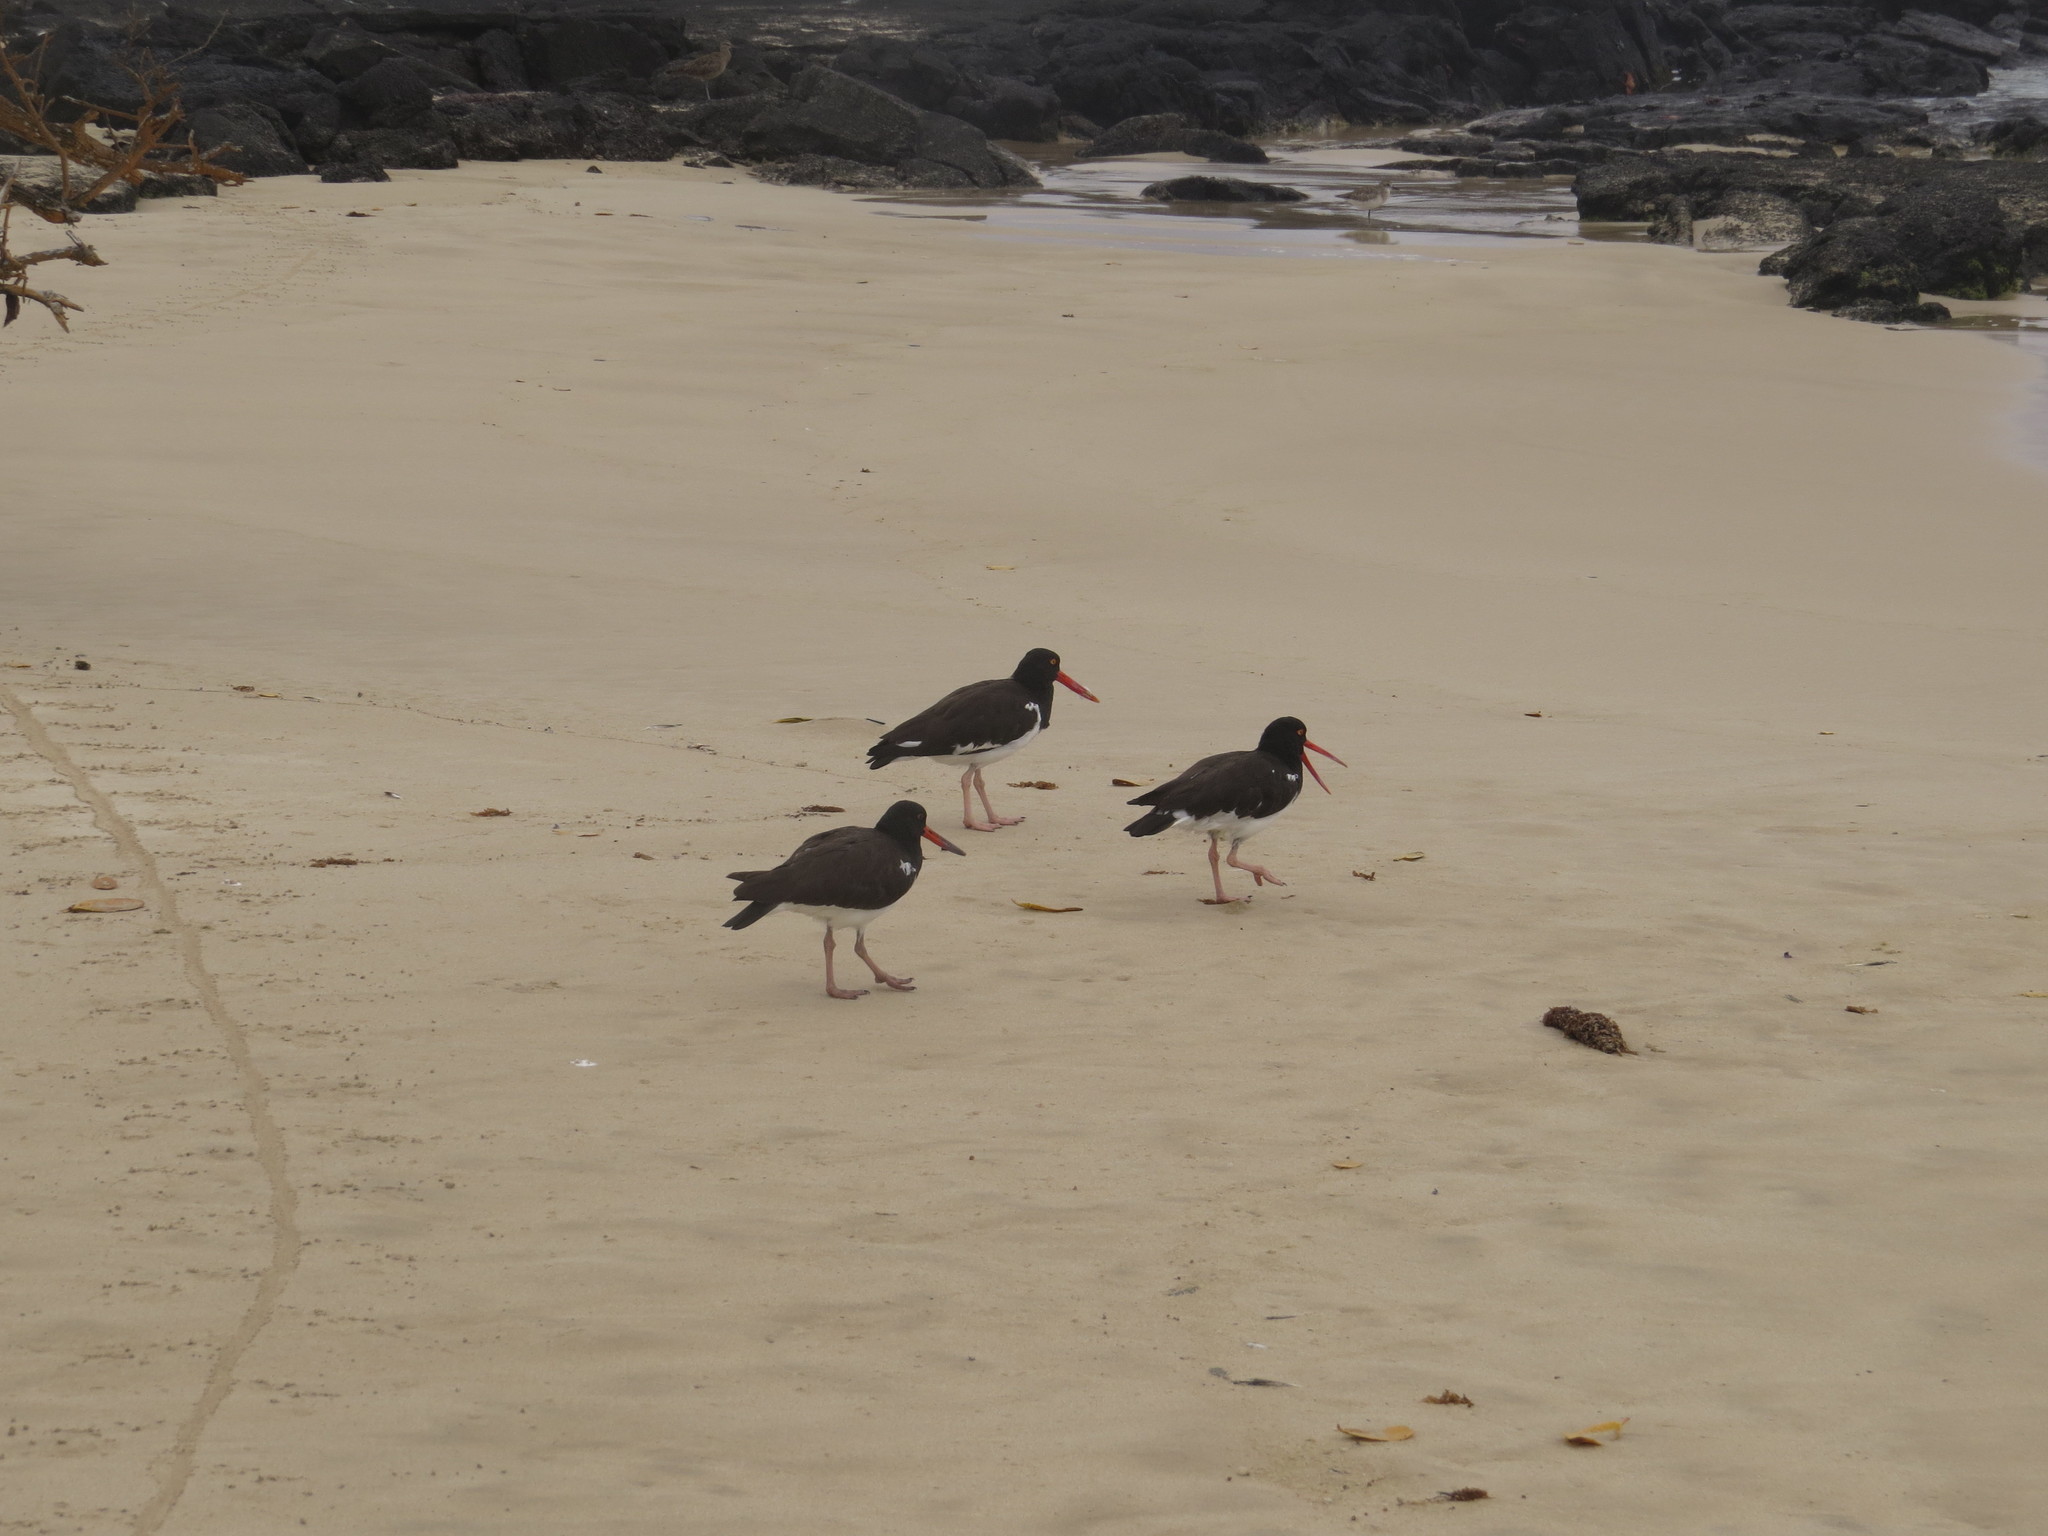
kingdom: Animalia
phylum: Chordata
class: Aves
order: Charadriiformes
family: Haematopodidae
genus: Haematopus
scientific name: Haematopus palliatus
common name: American oystercatcher
